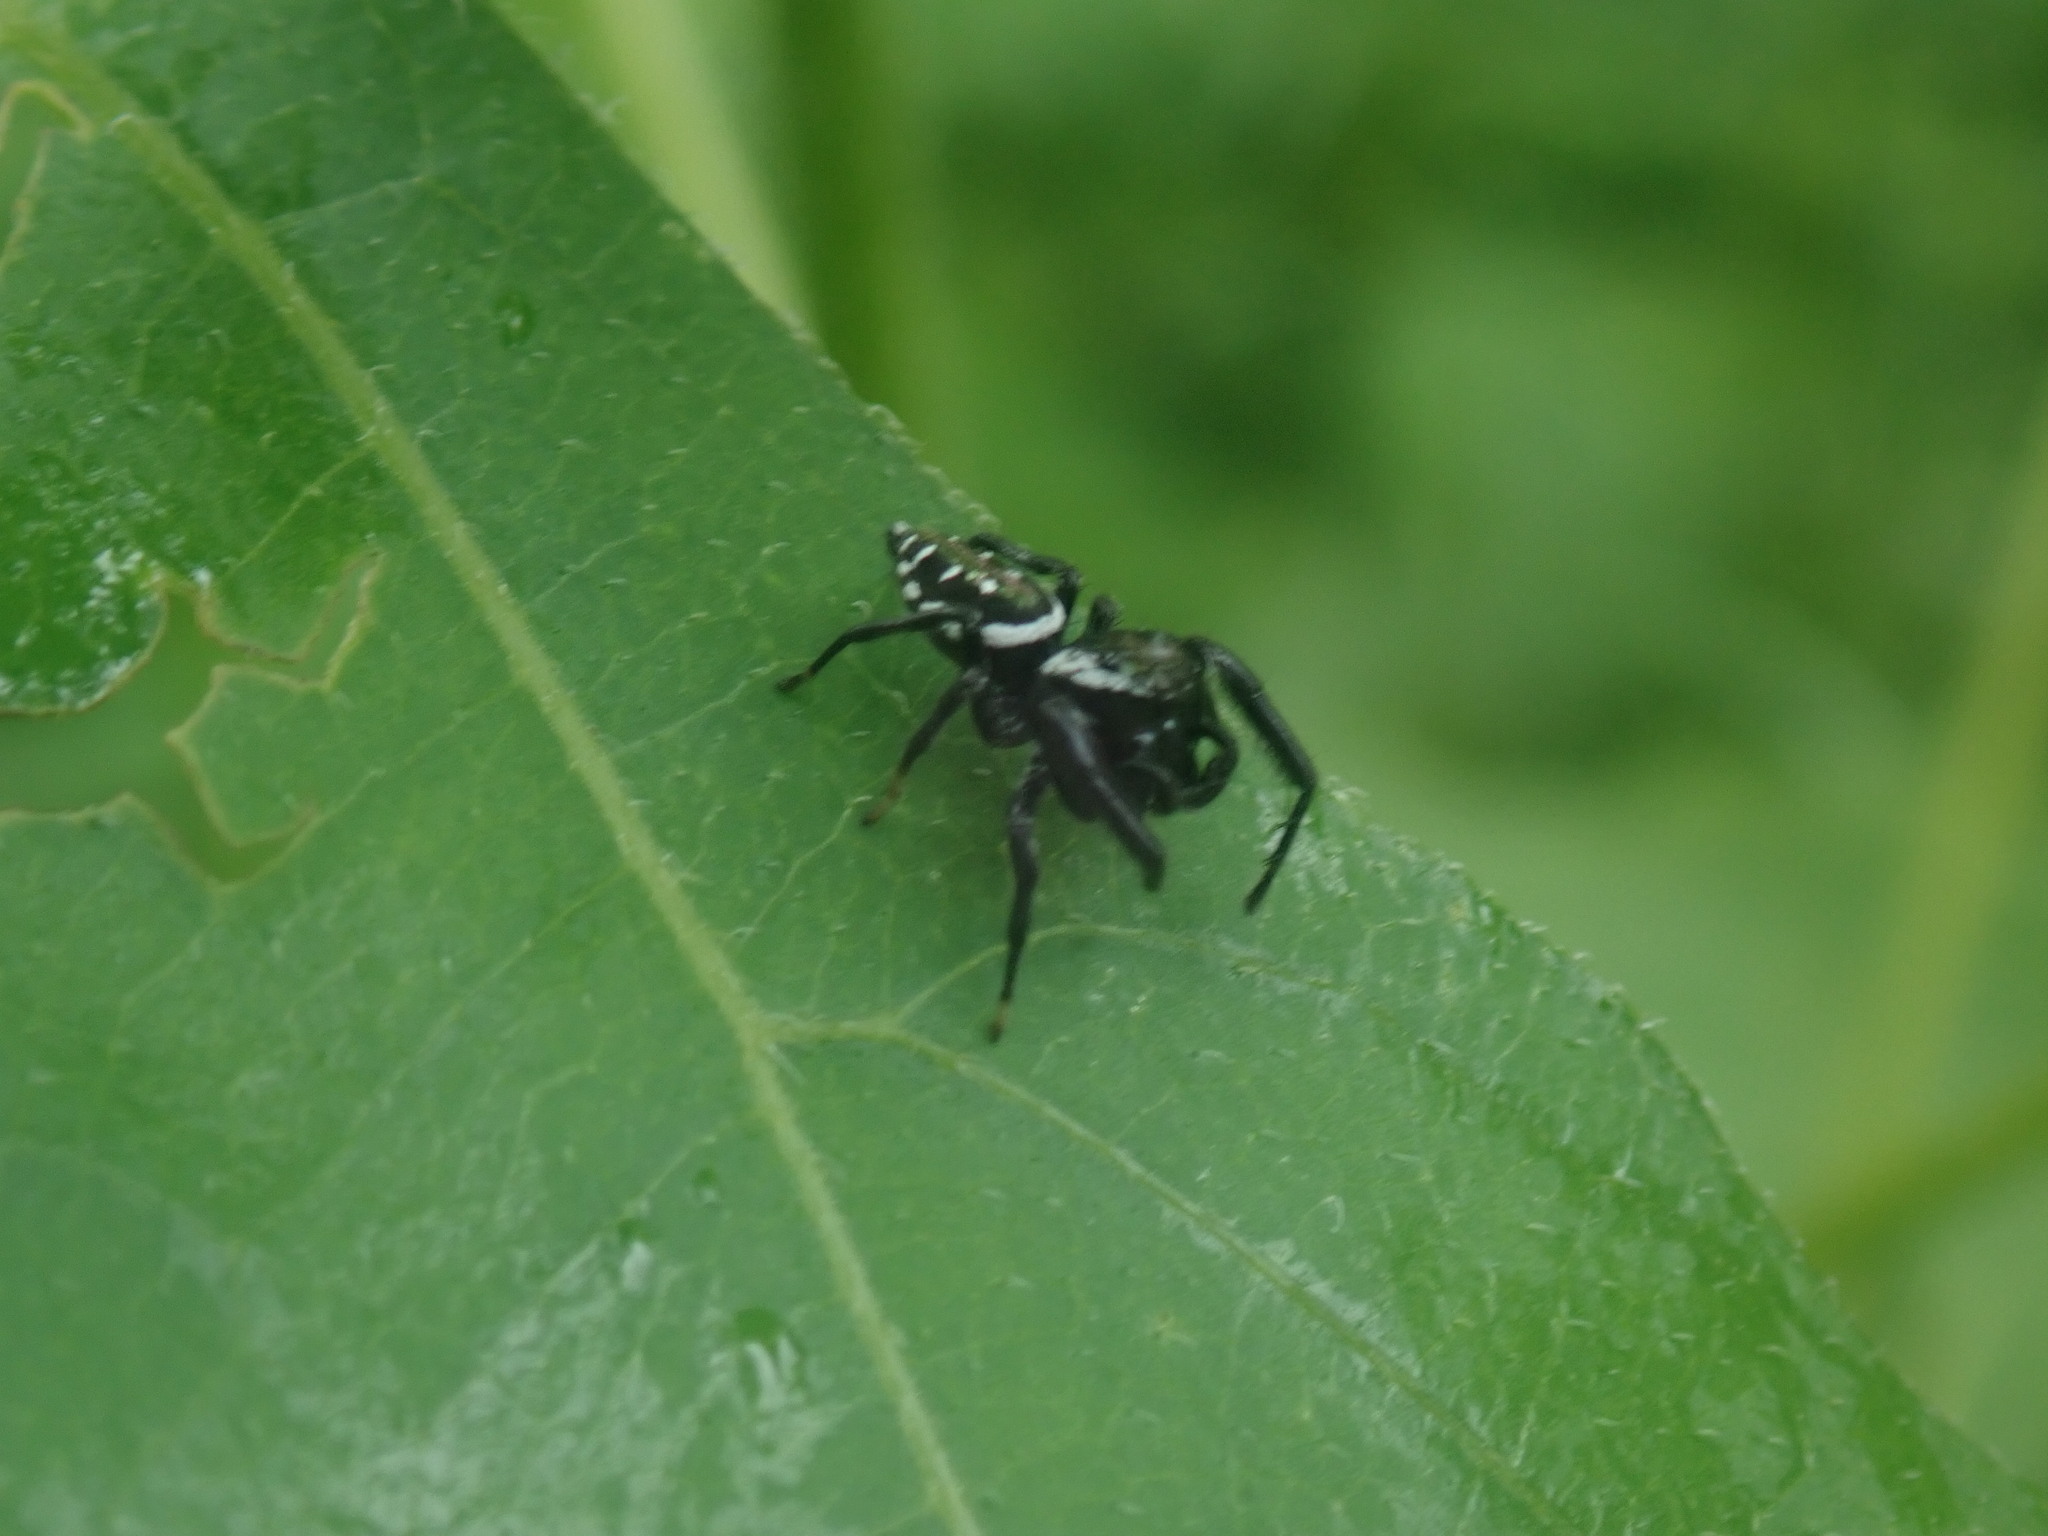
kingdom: Animalia
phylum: Arthropoda
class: Arachnida
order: Araneae
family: Salticidae
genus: Paraphidippus
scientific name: Paraphidippus aurantius
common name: Jumping spiders
